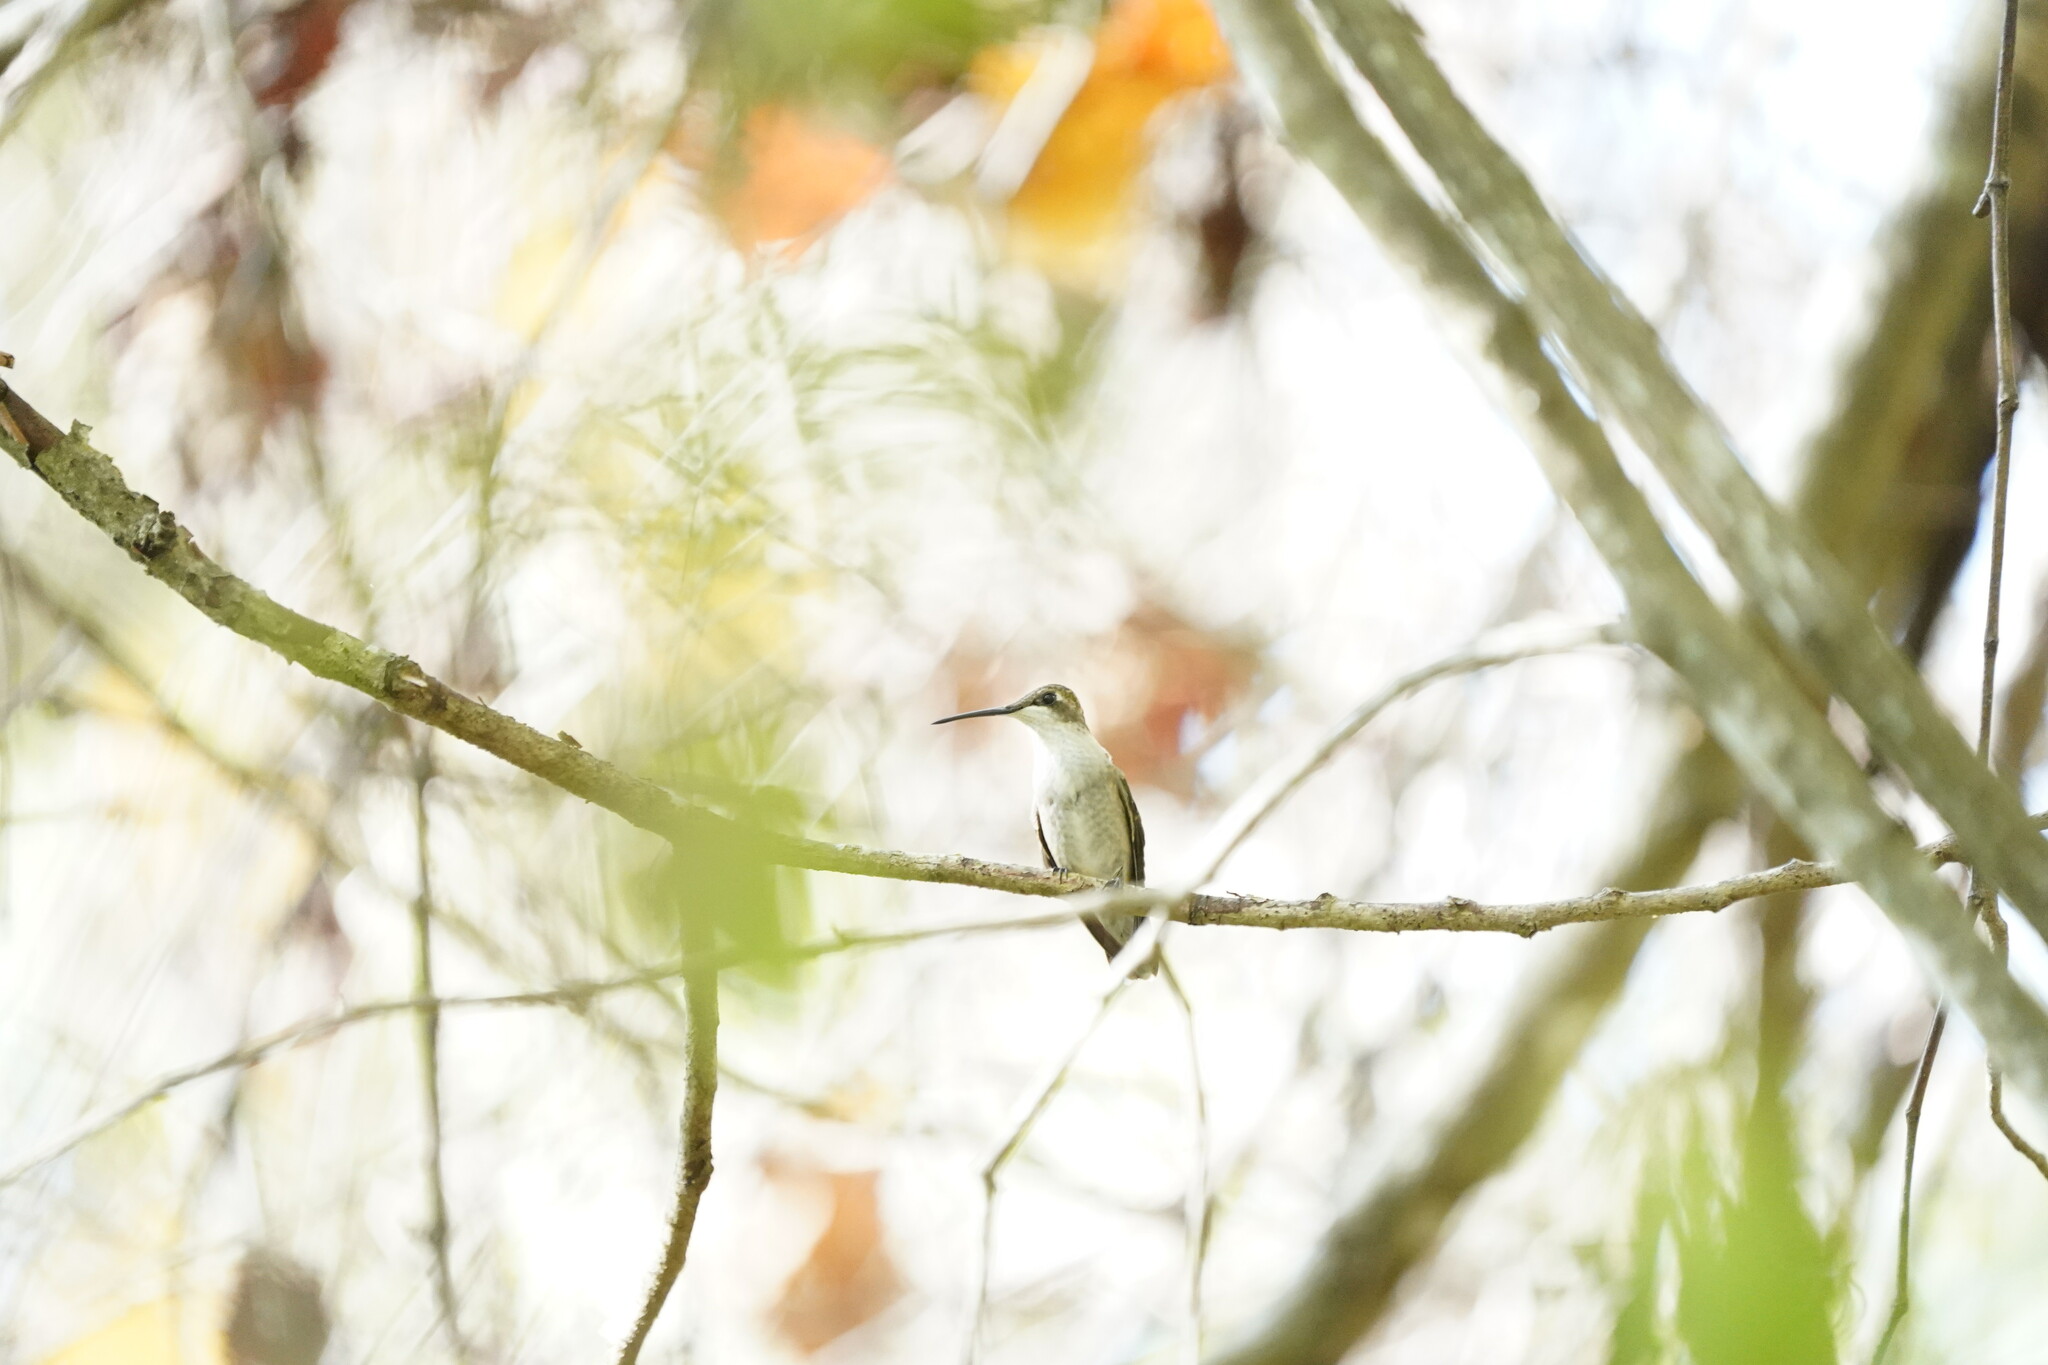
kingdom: Animalia
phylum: Chordata
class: Aves
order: Apodiformes
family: Trochilidae
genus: Archilochus
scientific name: Archilochus colubris
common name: Ruby-throated hummingbird
